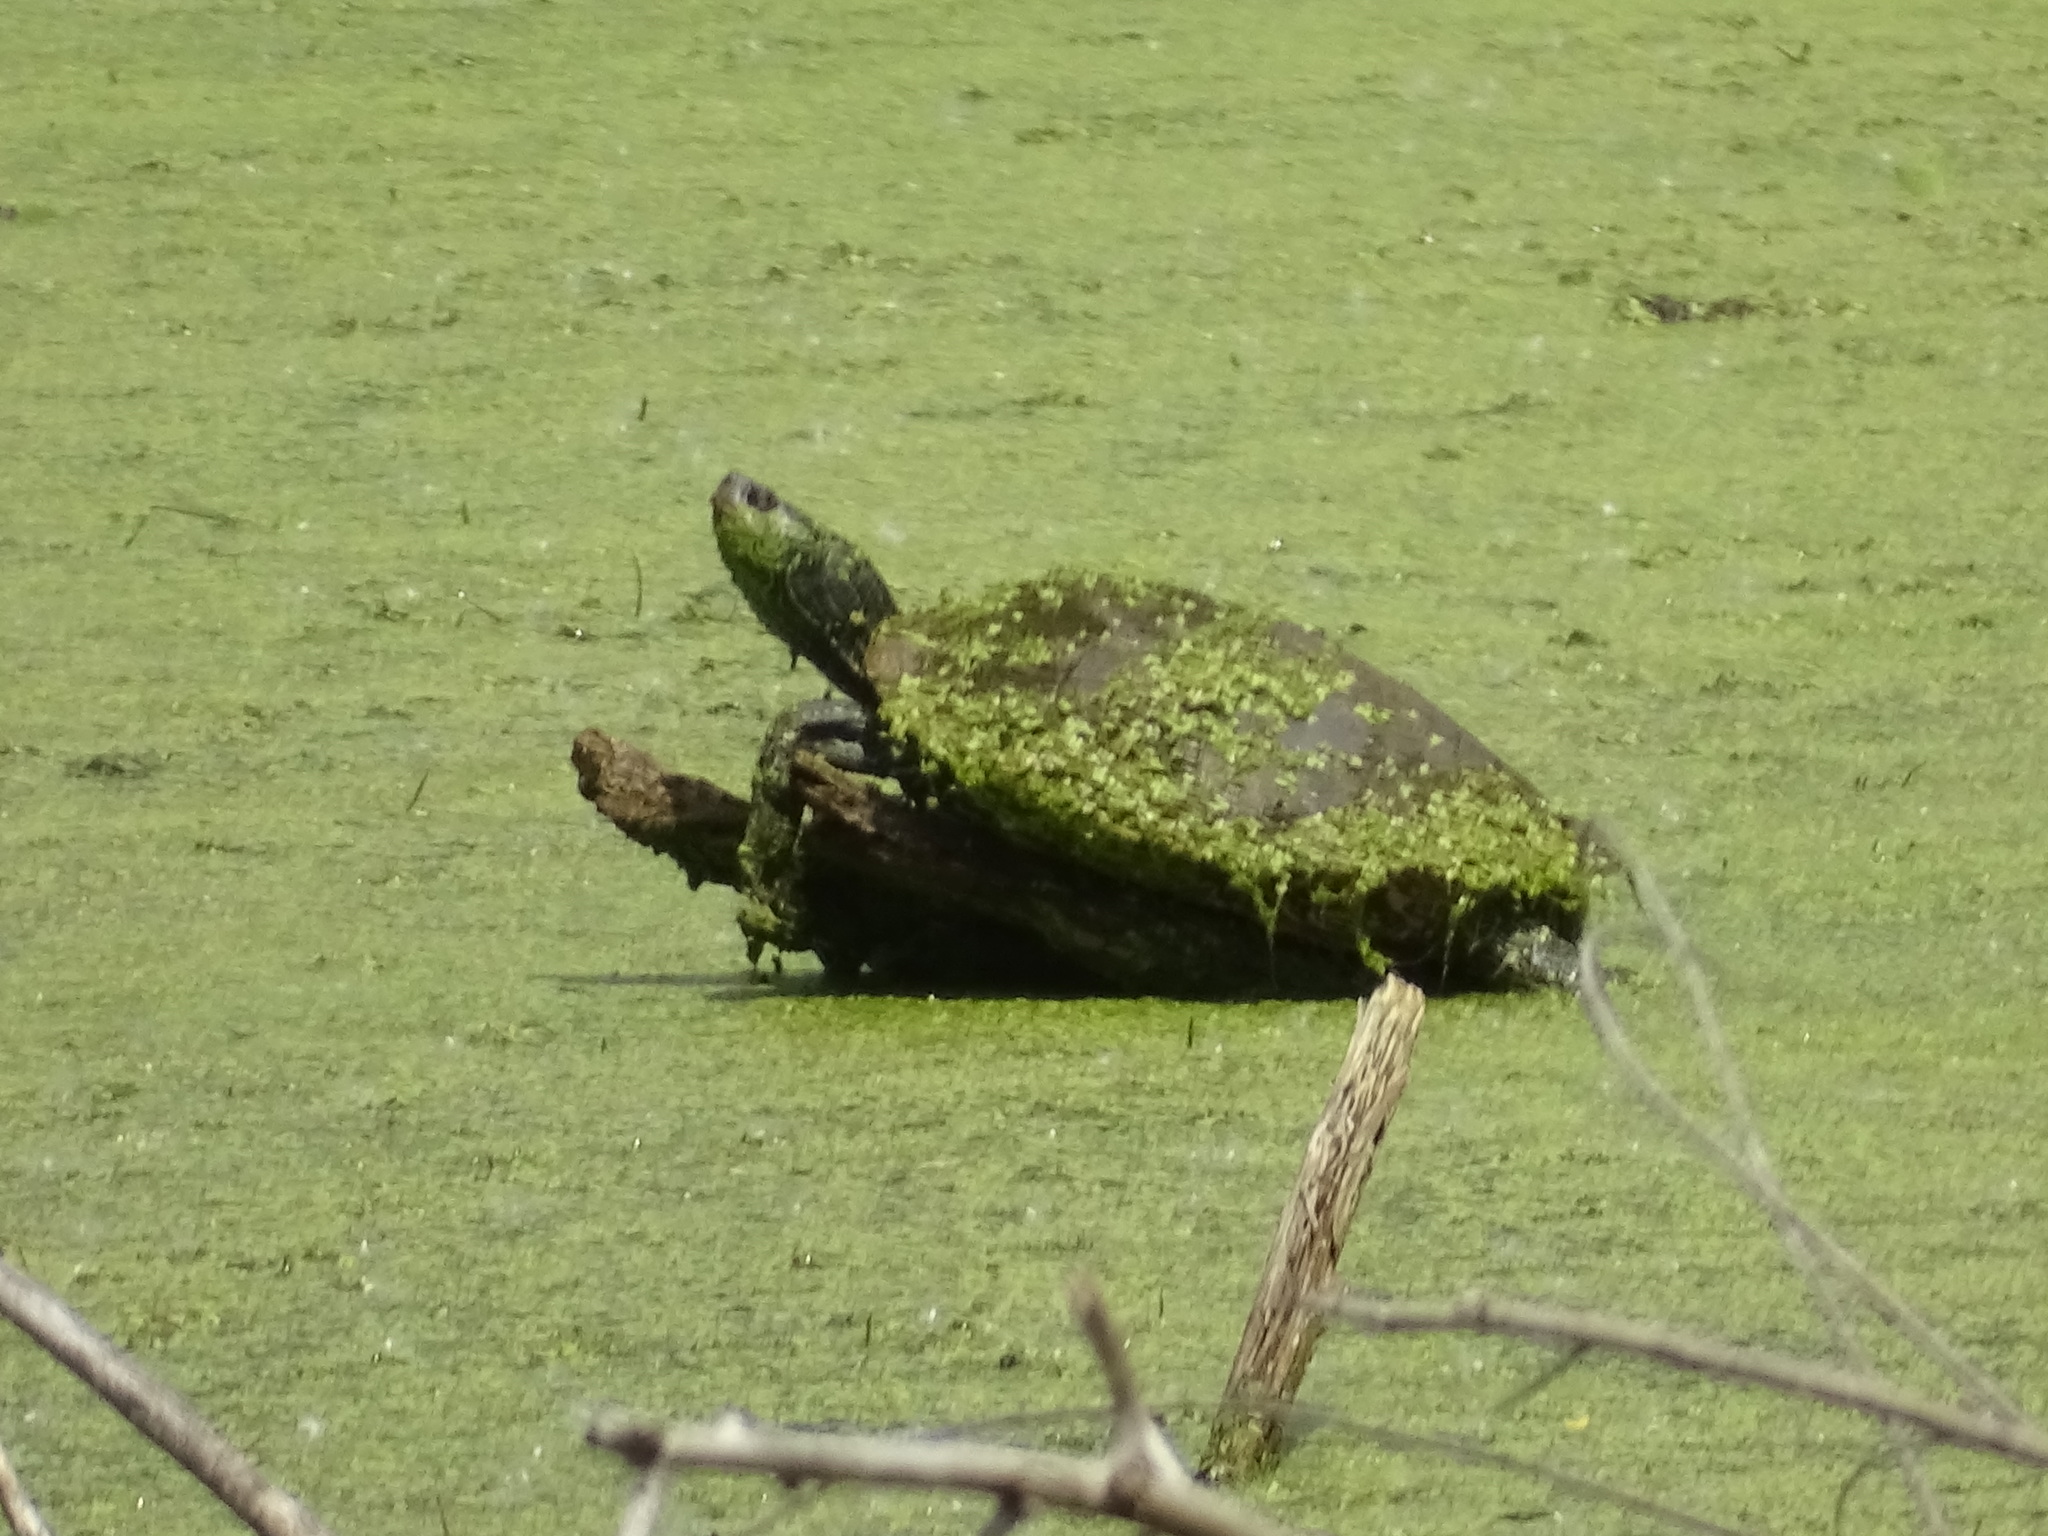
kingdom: Animalia
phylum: Chordata
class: Testudines
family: Emydidae
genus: Graptemys
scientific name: Graptemys geographica
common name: Common map turtle
